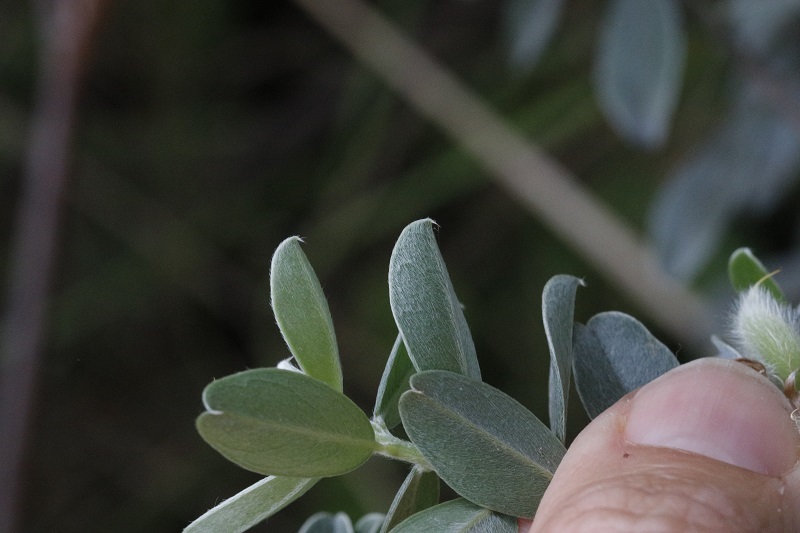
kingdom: Plantae
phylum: Tracheophyta
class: Magnoliopsida
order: Fabales
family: Fabaceae
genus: Podalyria
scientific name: Podalyria myrtillifolia
